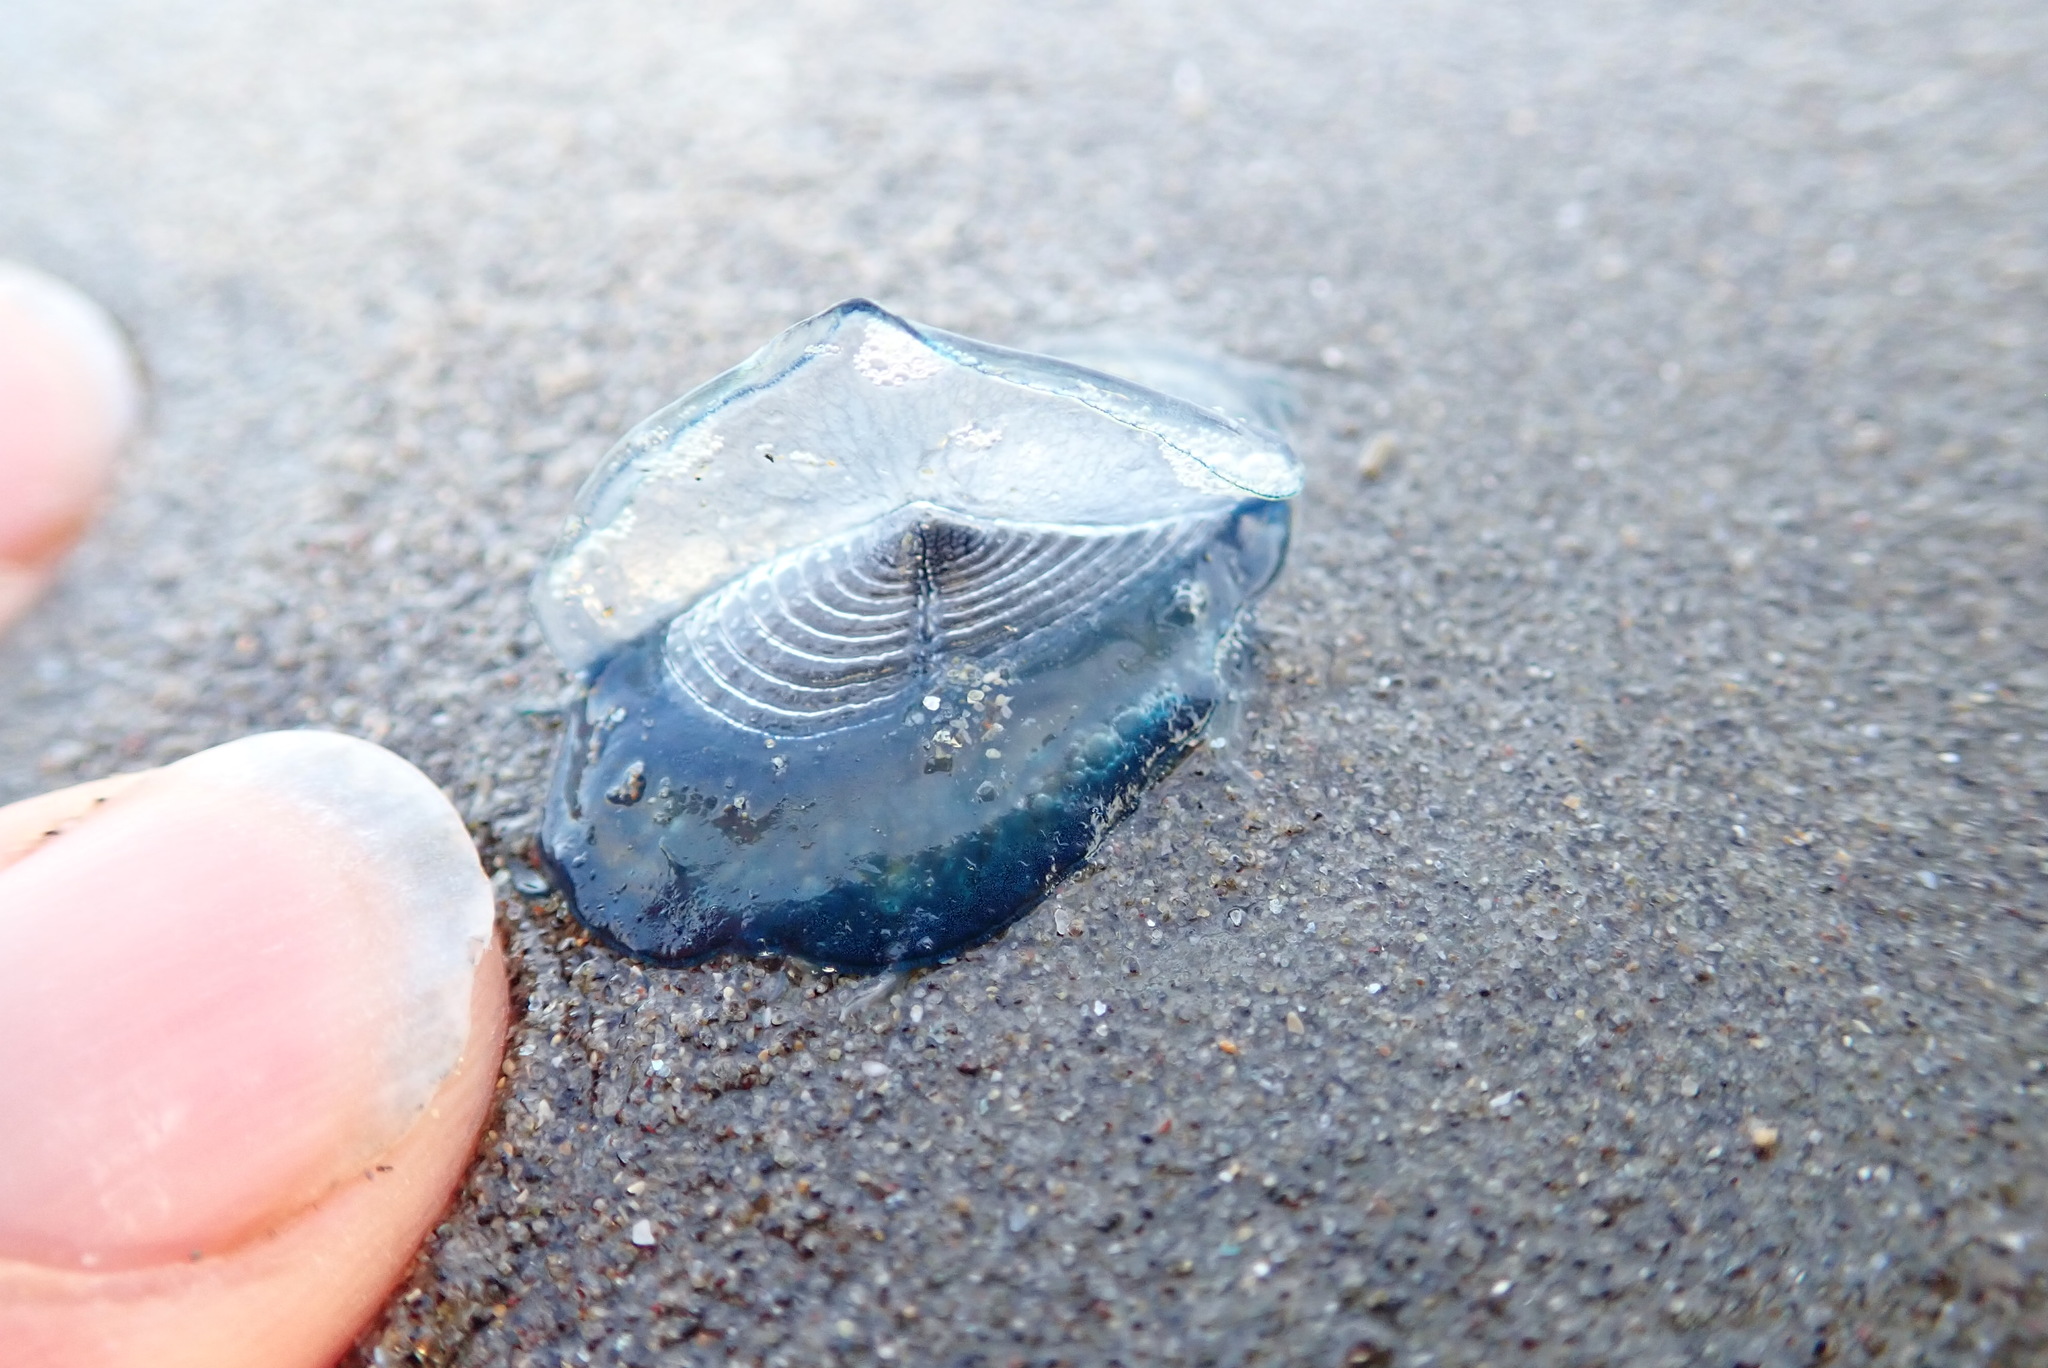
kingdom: Animalia
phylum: Cnidaria
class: Hydrozoa
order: Anthoathecata
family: Porpitidae
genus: Velella
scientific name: Velella velella
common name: By-the-wind-sailor
